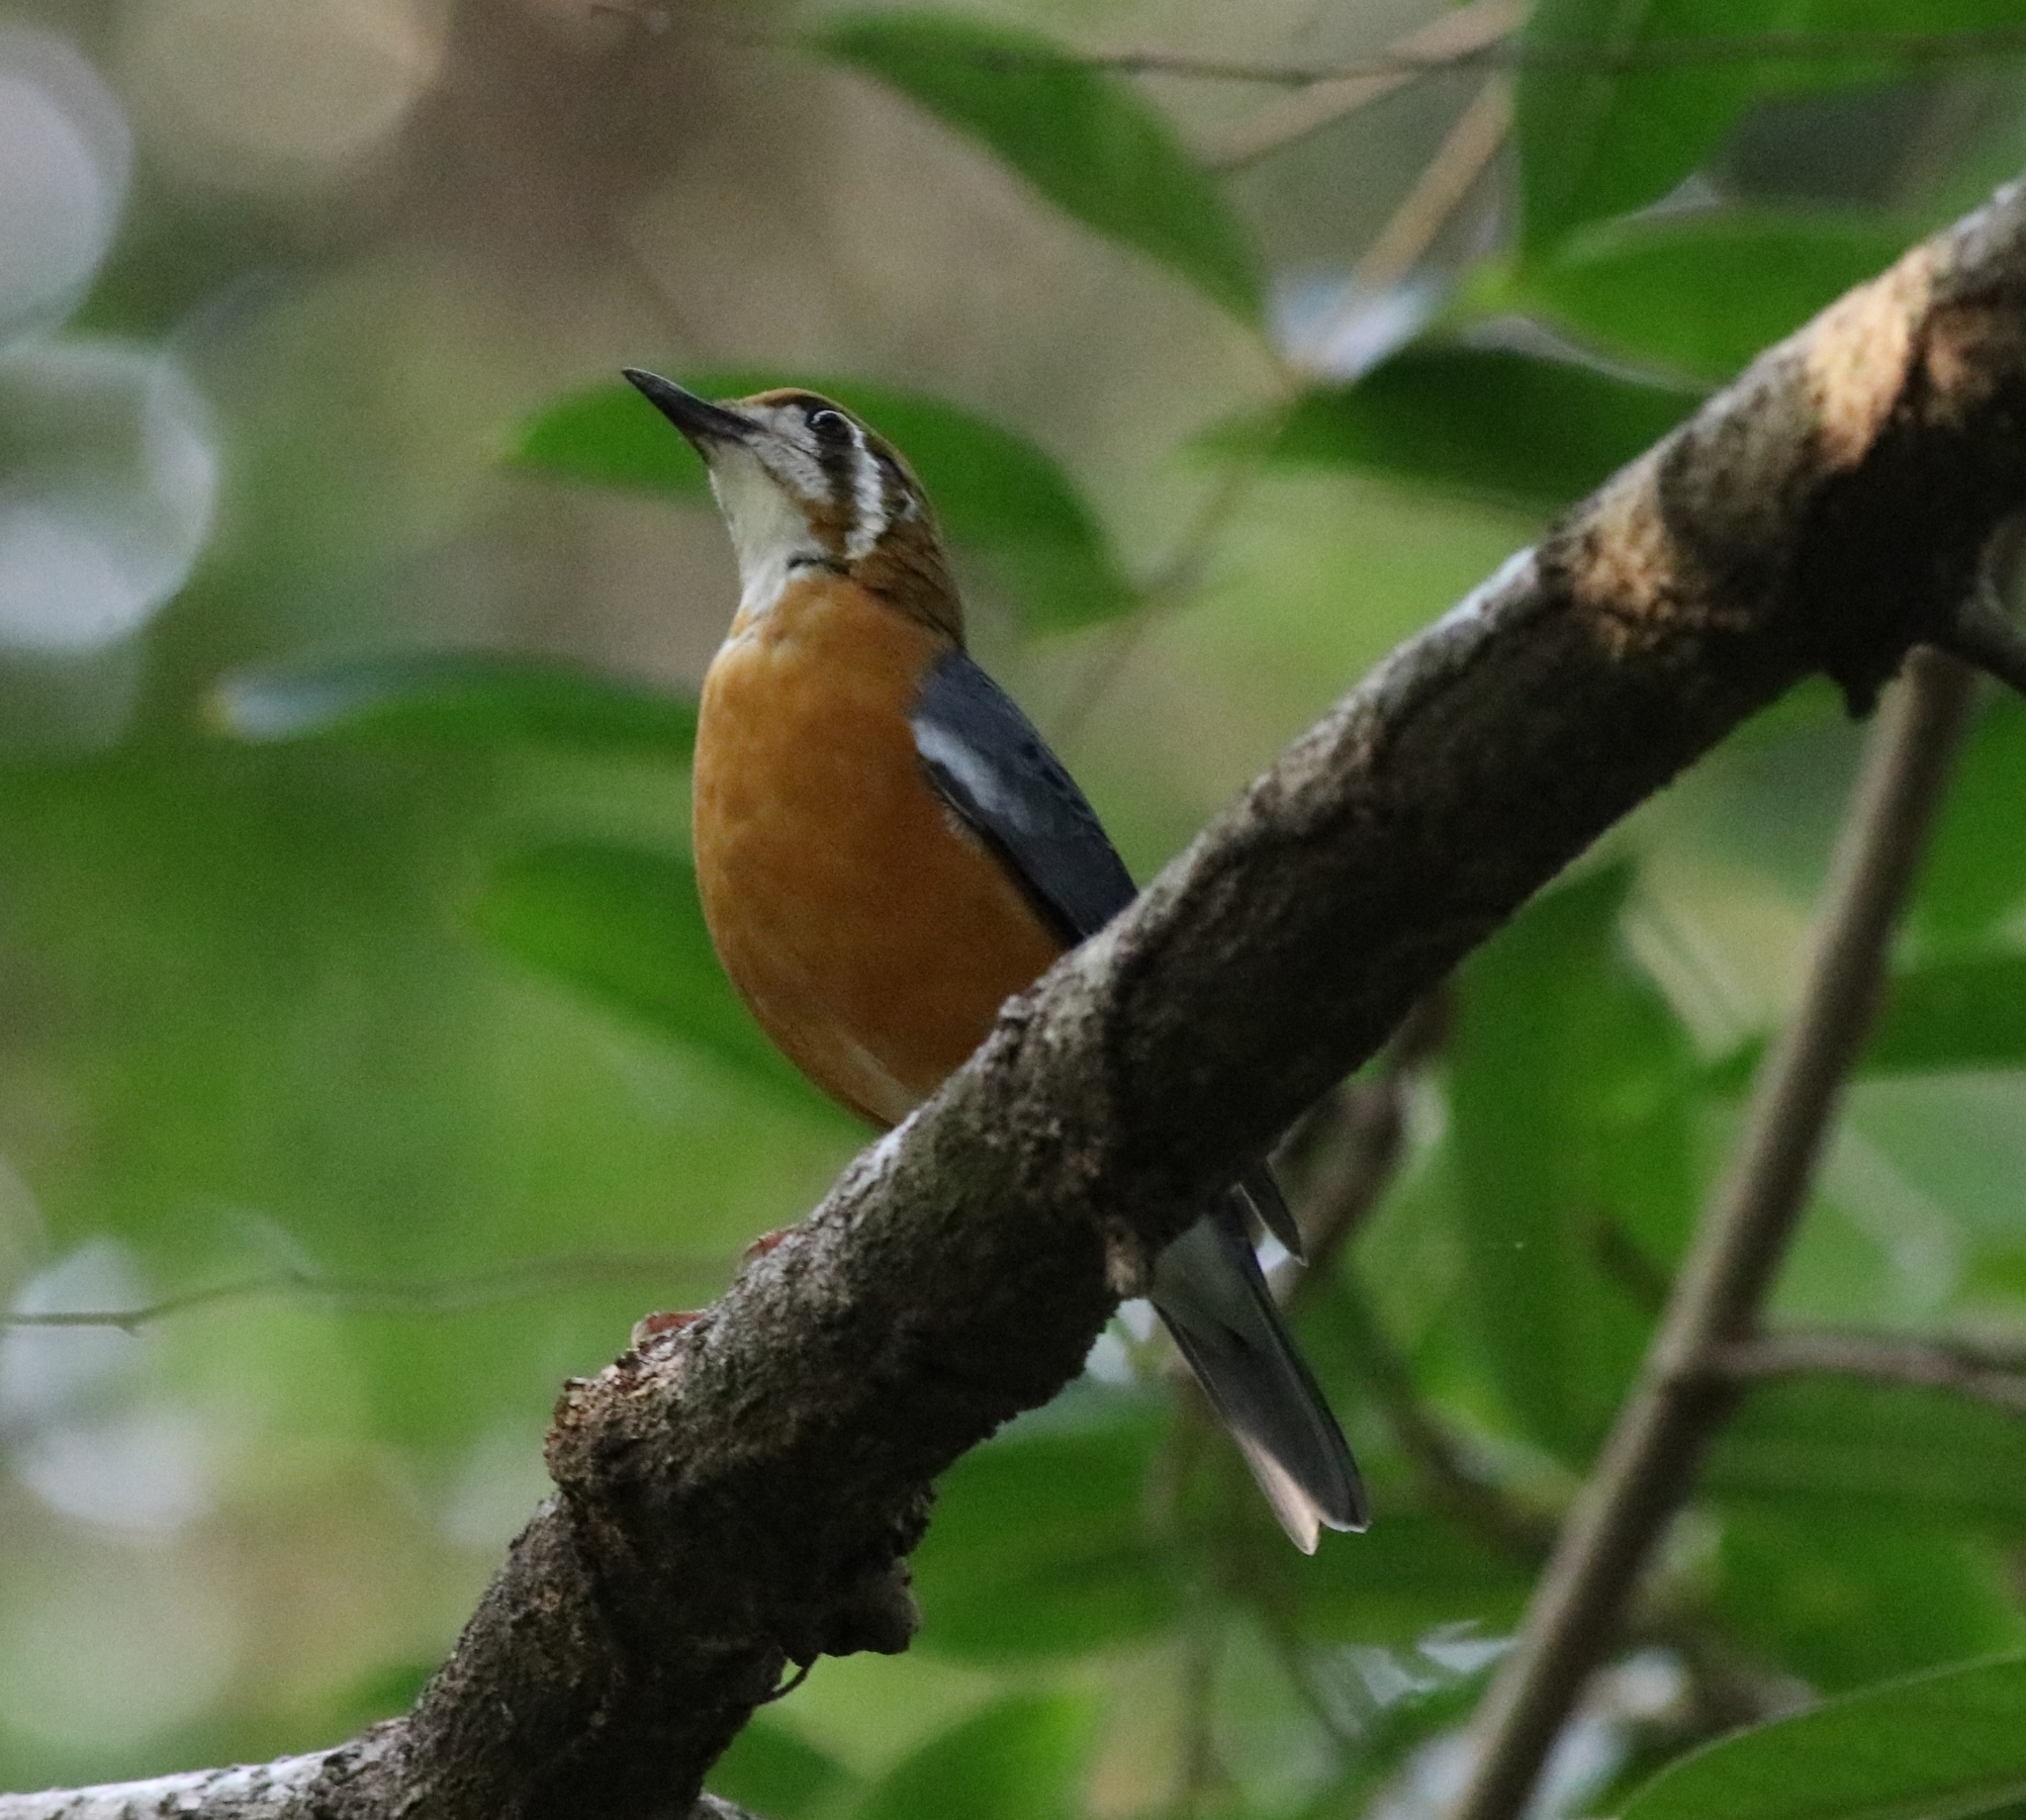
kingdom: Animalia
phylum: Chordata
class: Aves
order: Passeriformes
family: Turdidae
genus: Geokichla
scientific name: Geokichla citrina
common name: Orange-headed thrush
